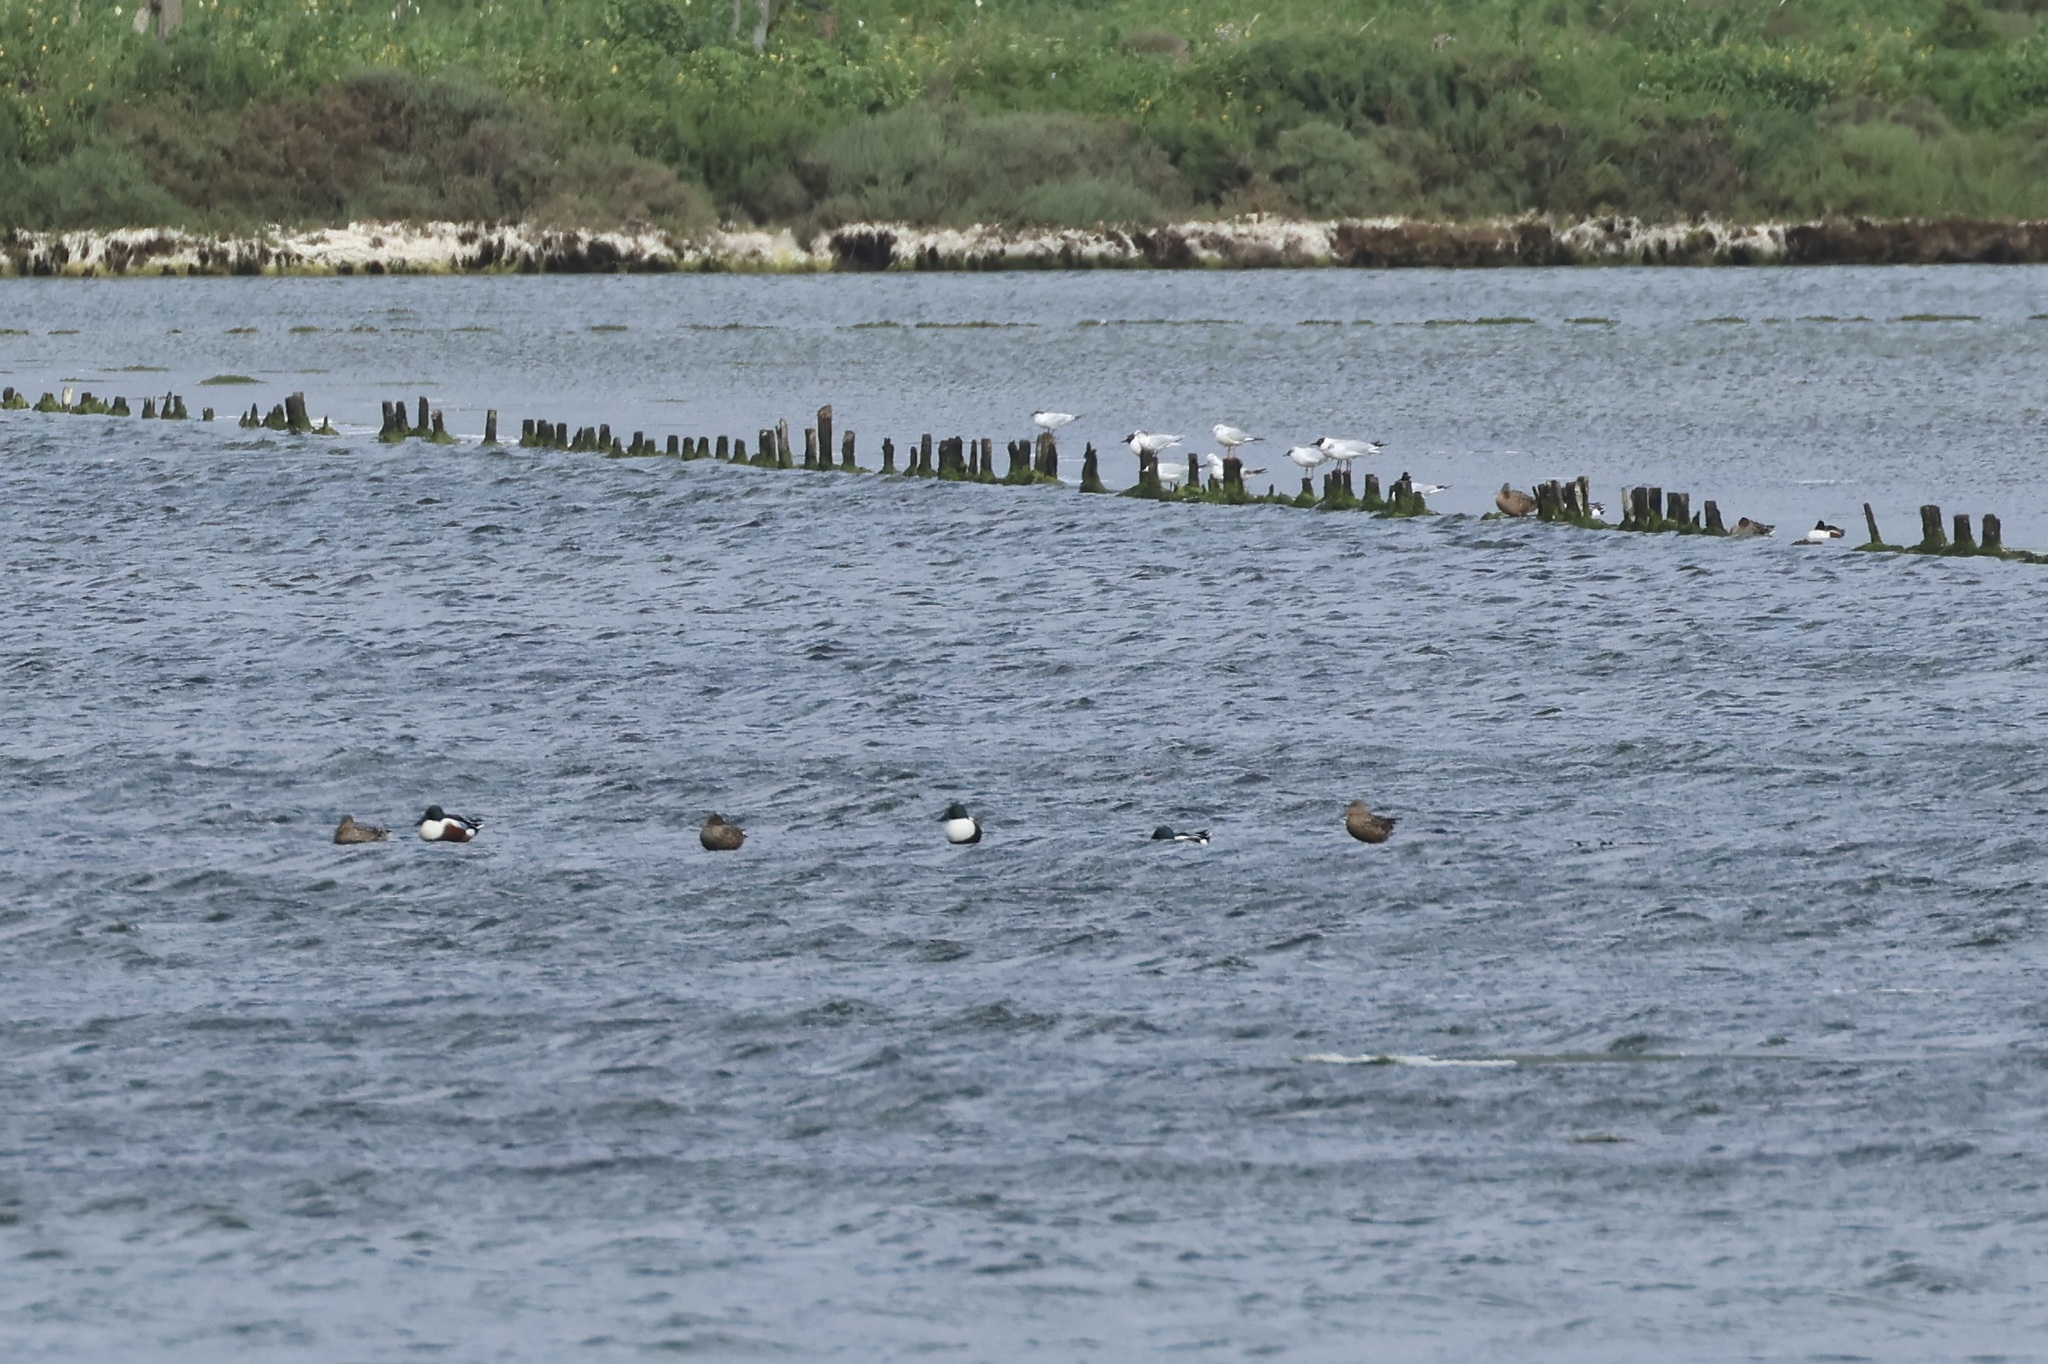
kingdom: Animalia
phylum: Chordata
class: Aves
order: Anseriformes
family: Anatidae
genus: Spatula
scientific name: Spatula clypeata
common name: Northern shoveler
